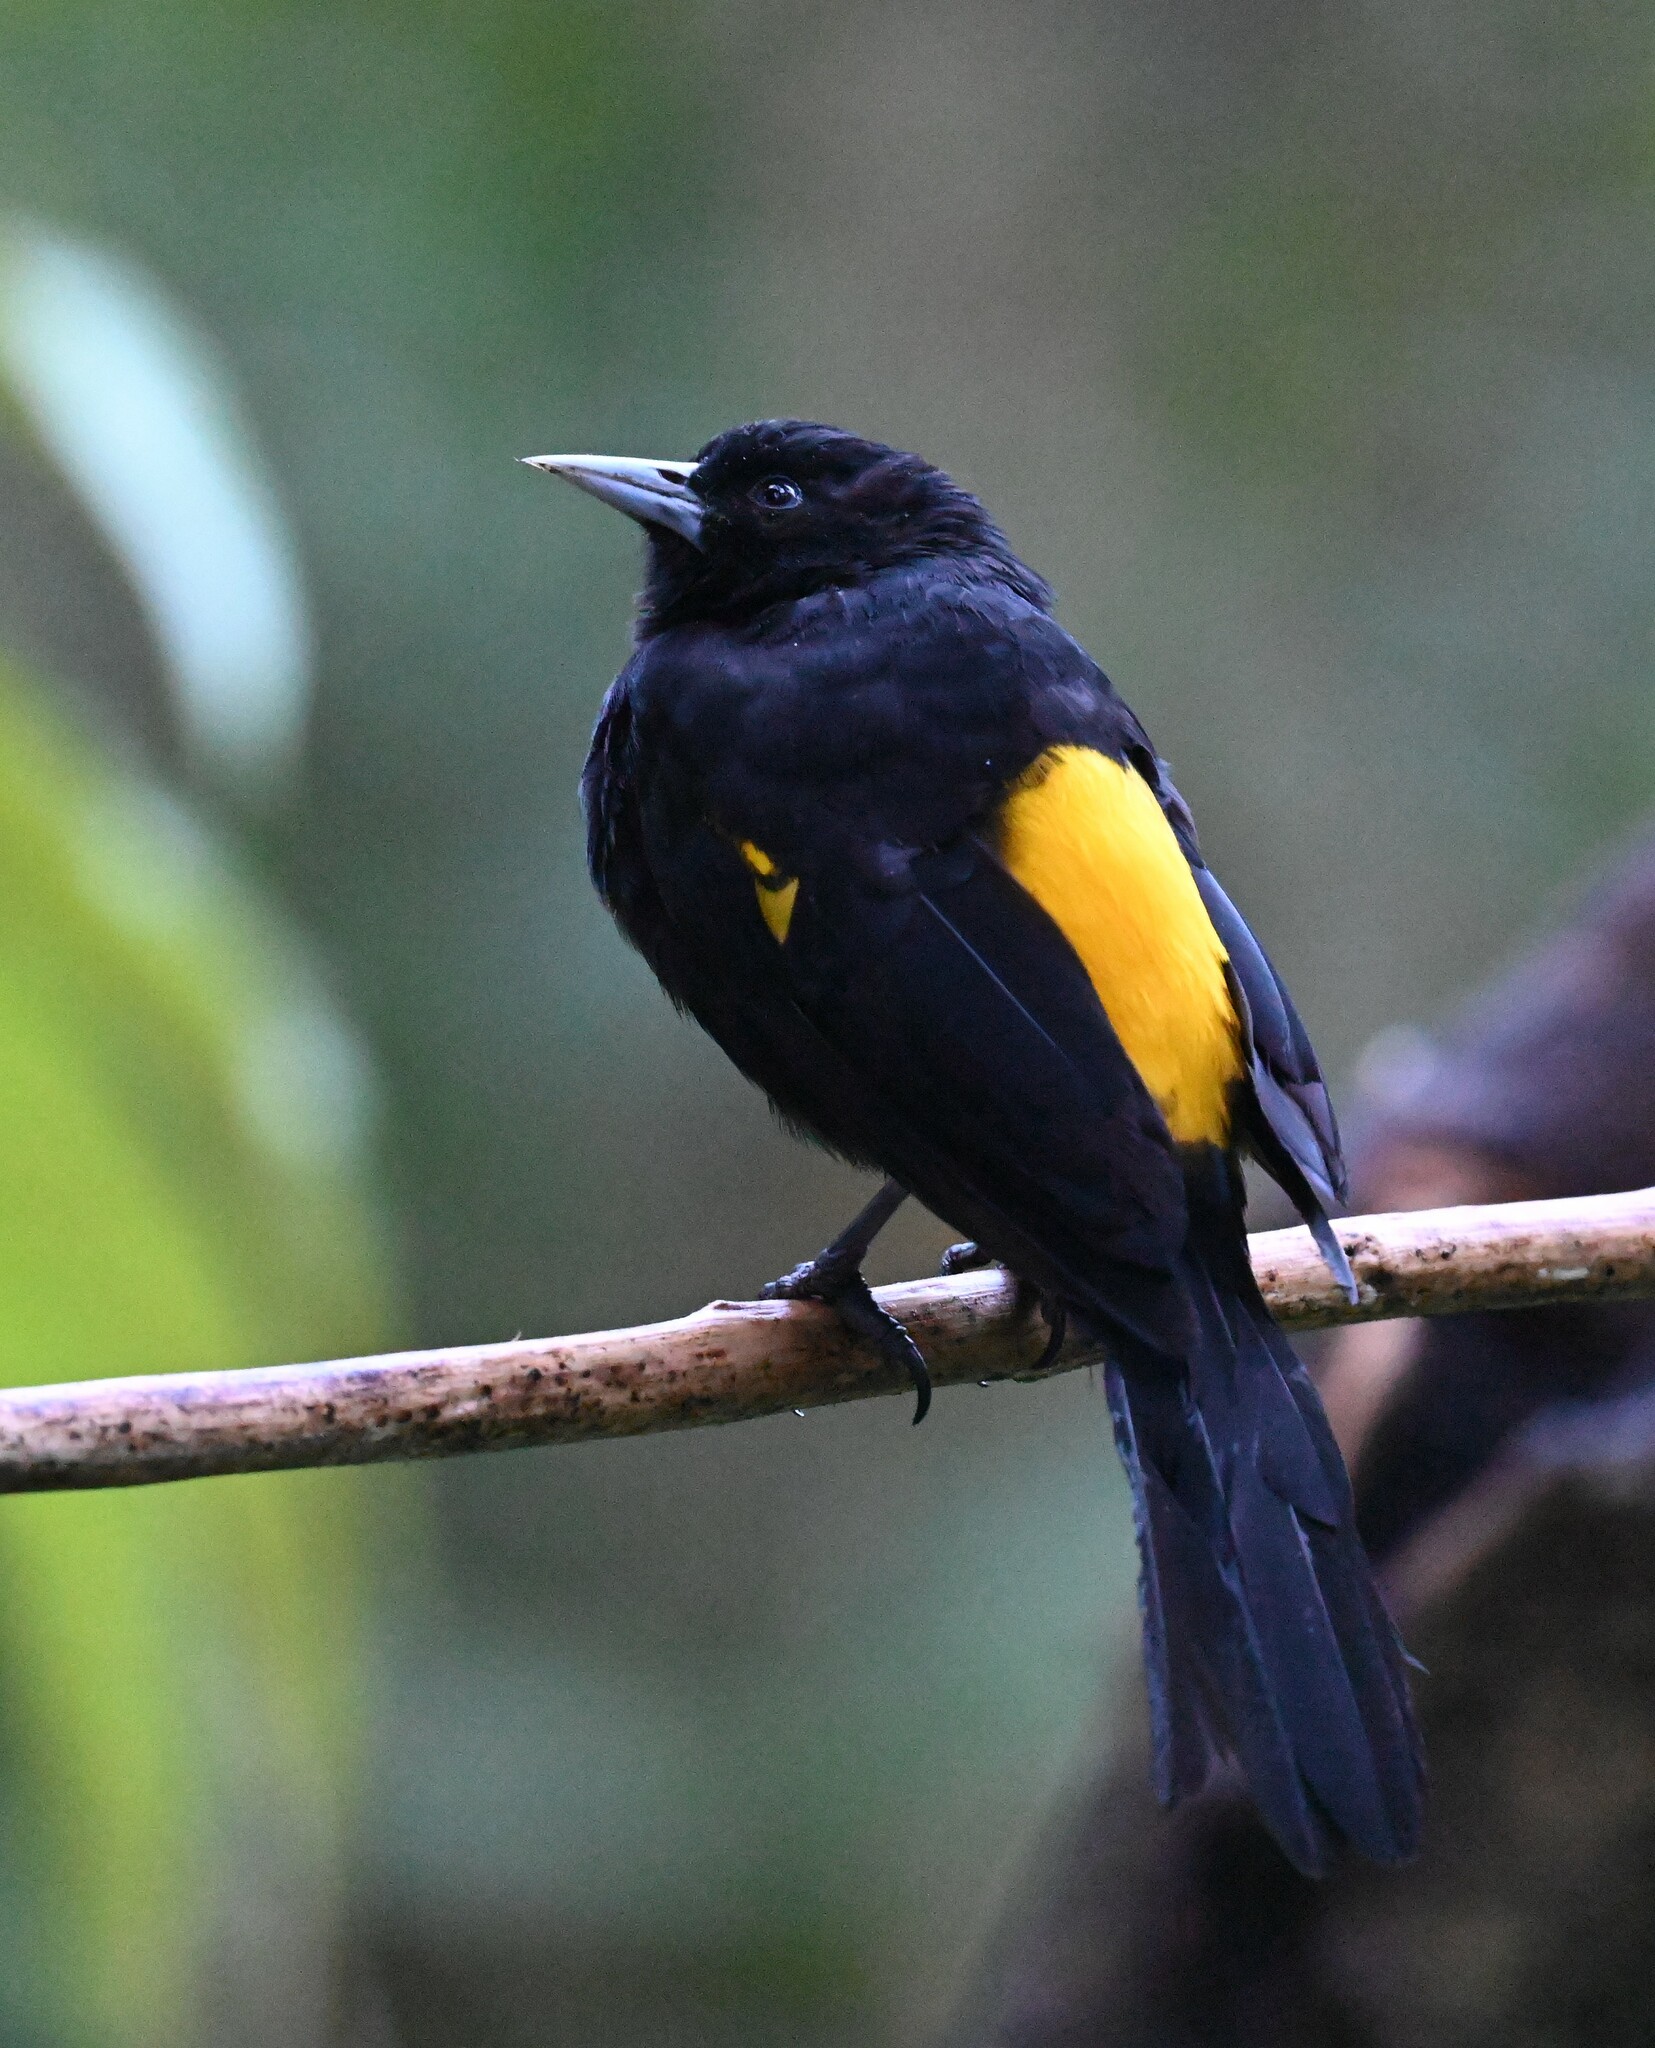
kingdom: Animalia
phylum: Chordata
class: Aves
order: Passeriformes
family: Icteridae
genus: Cacicus
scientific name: Cacicus chrysonotus
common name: Southern mountain cacique
